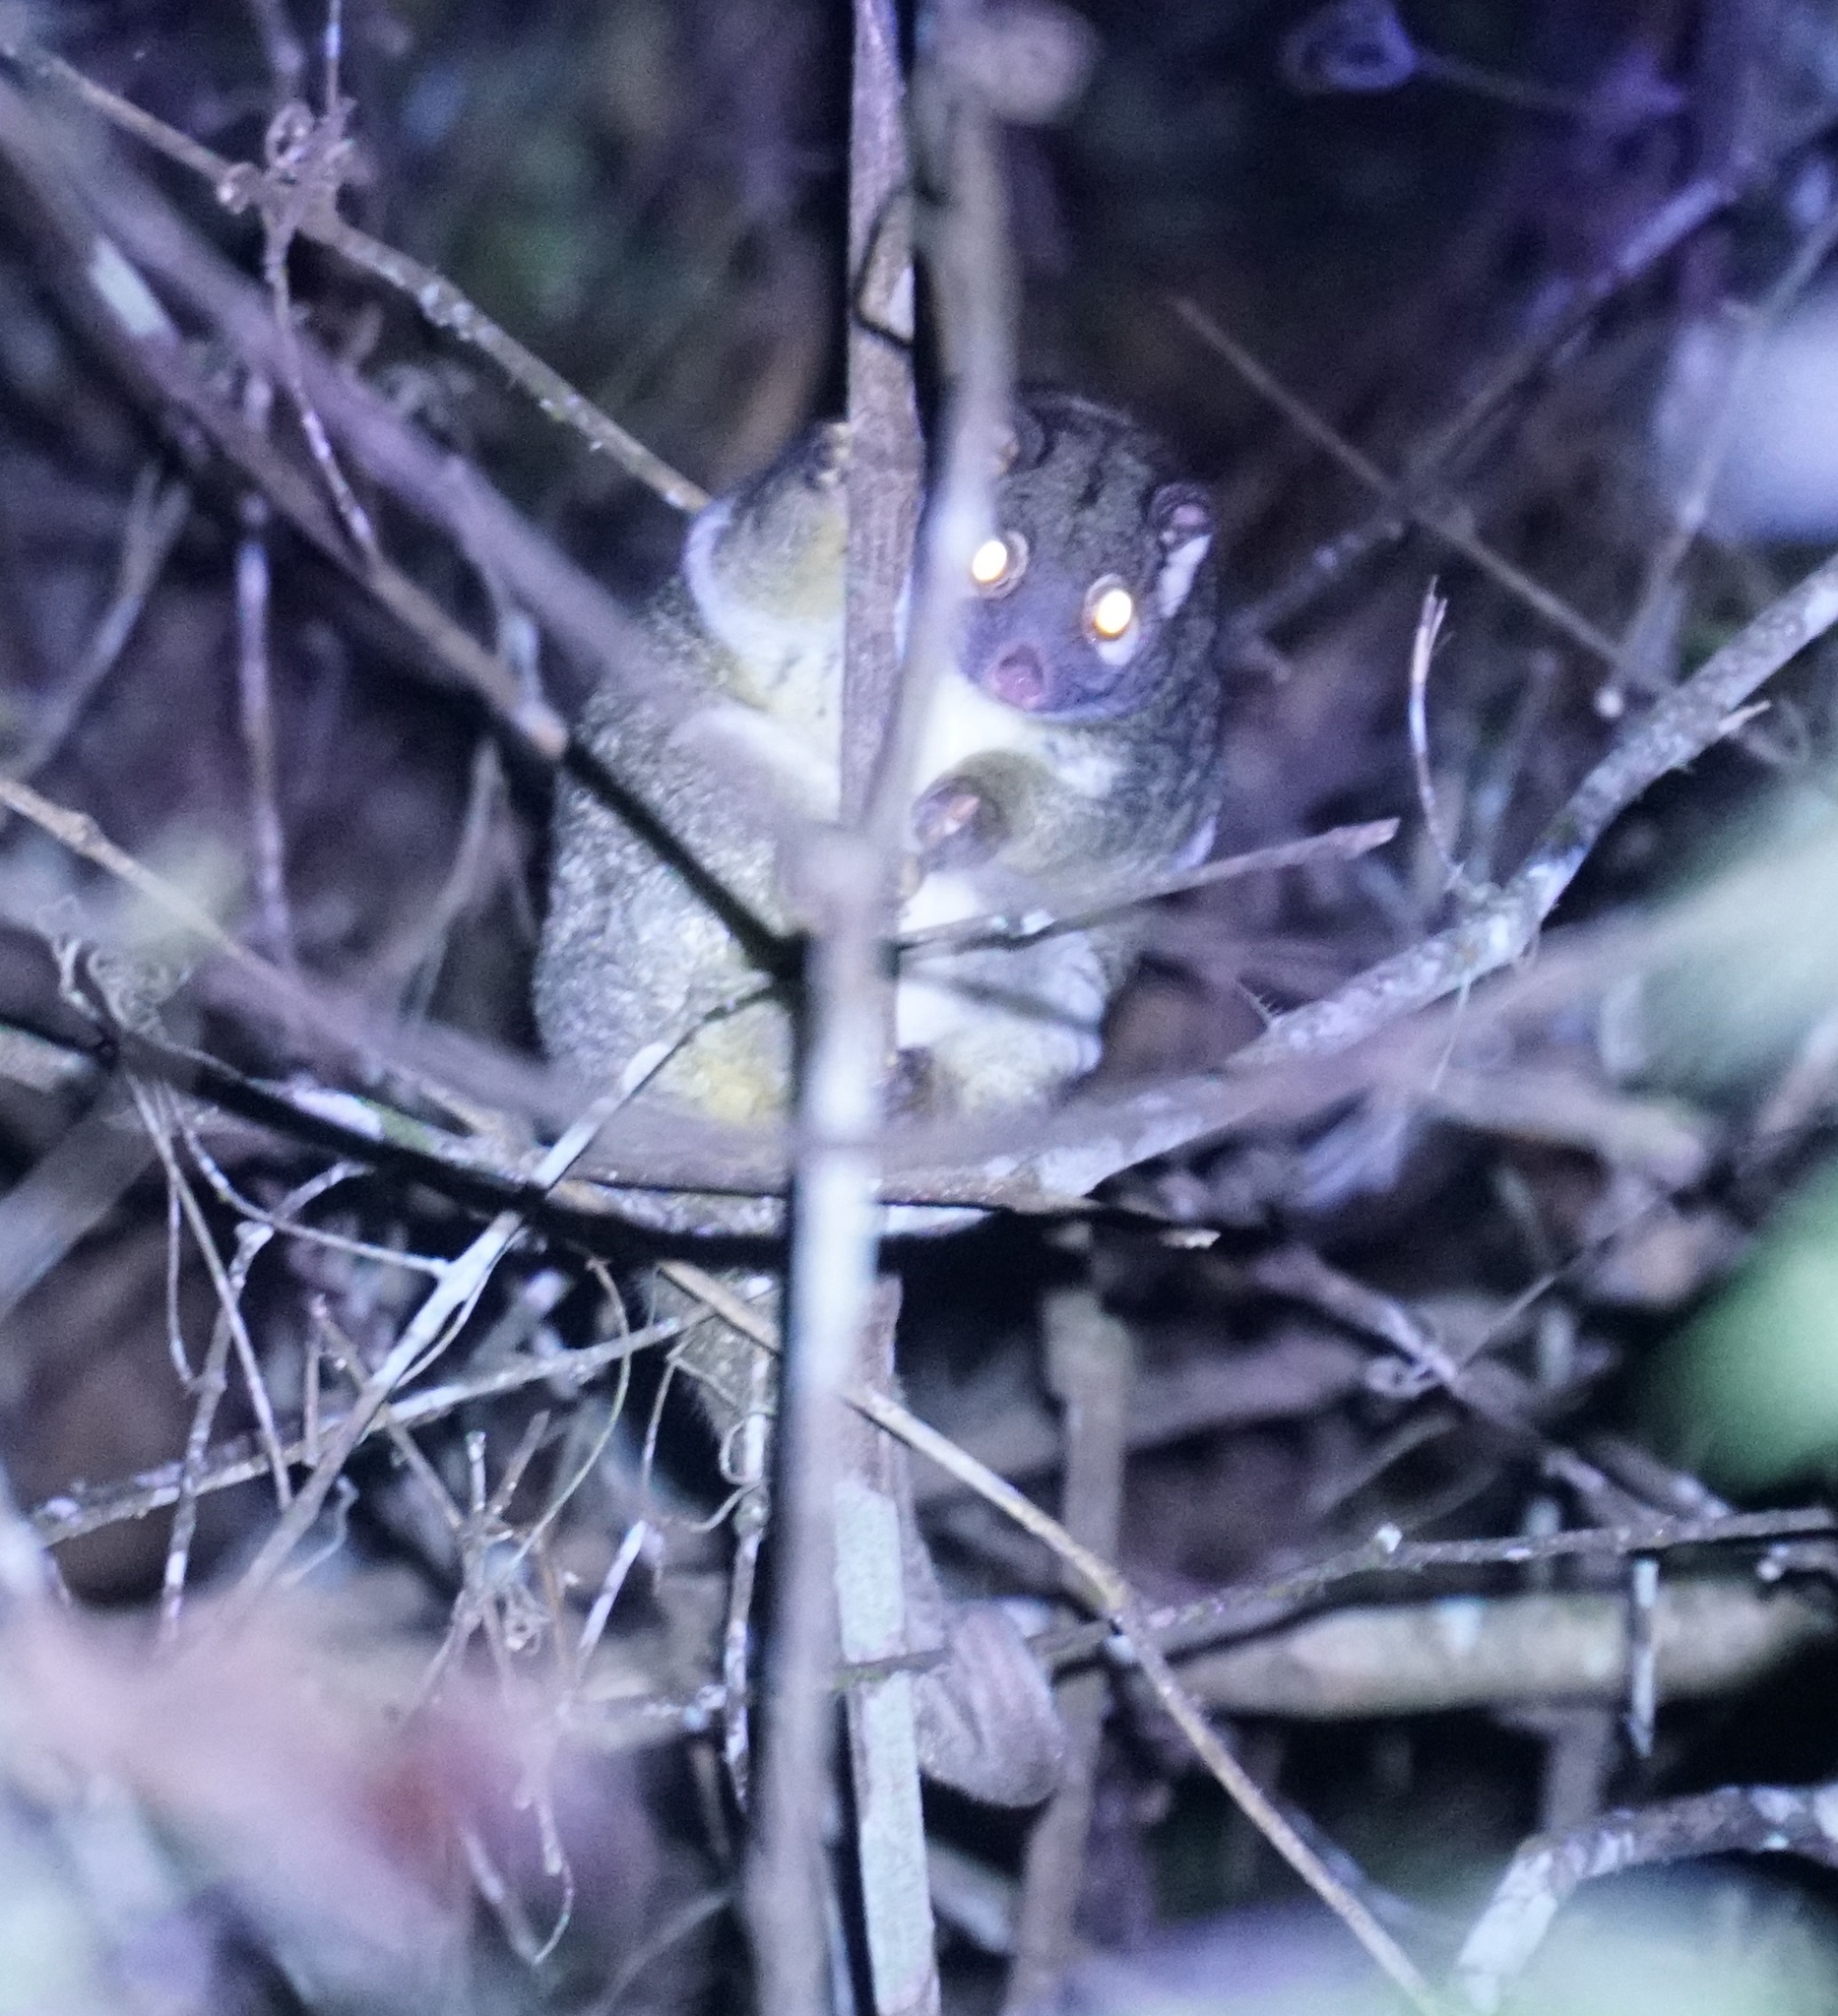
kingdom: Animalia
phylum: Chordata
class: Mammalia
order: Diprotodontia
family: Pseudocheiridae
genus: Pseudochirops
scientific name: Pseudochirops archeri
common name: Green ringtail
